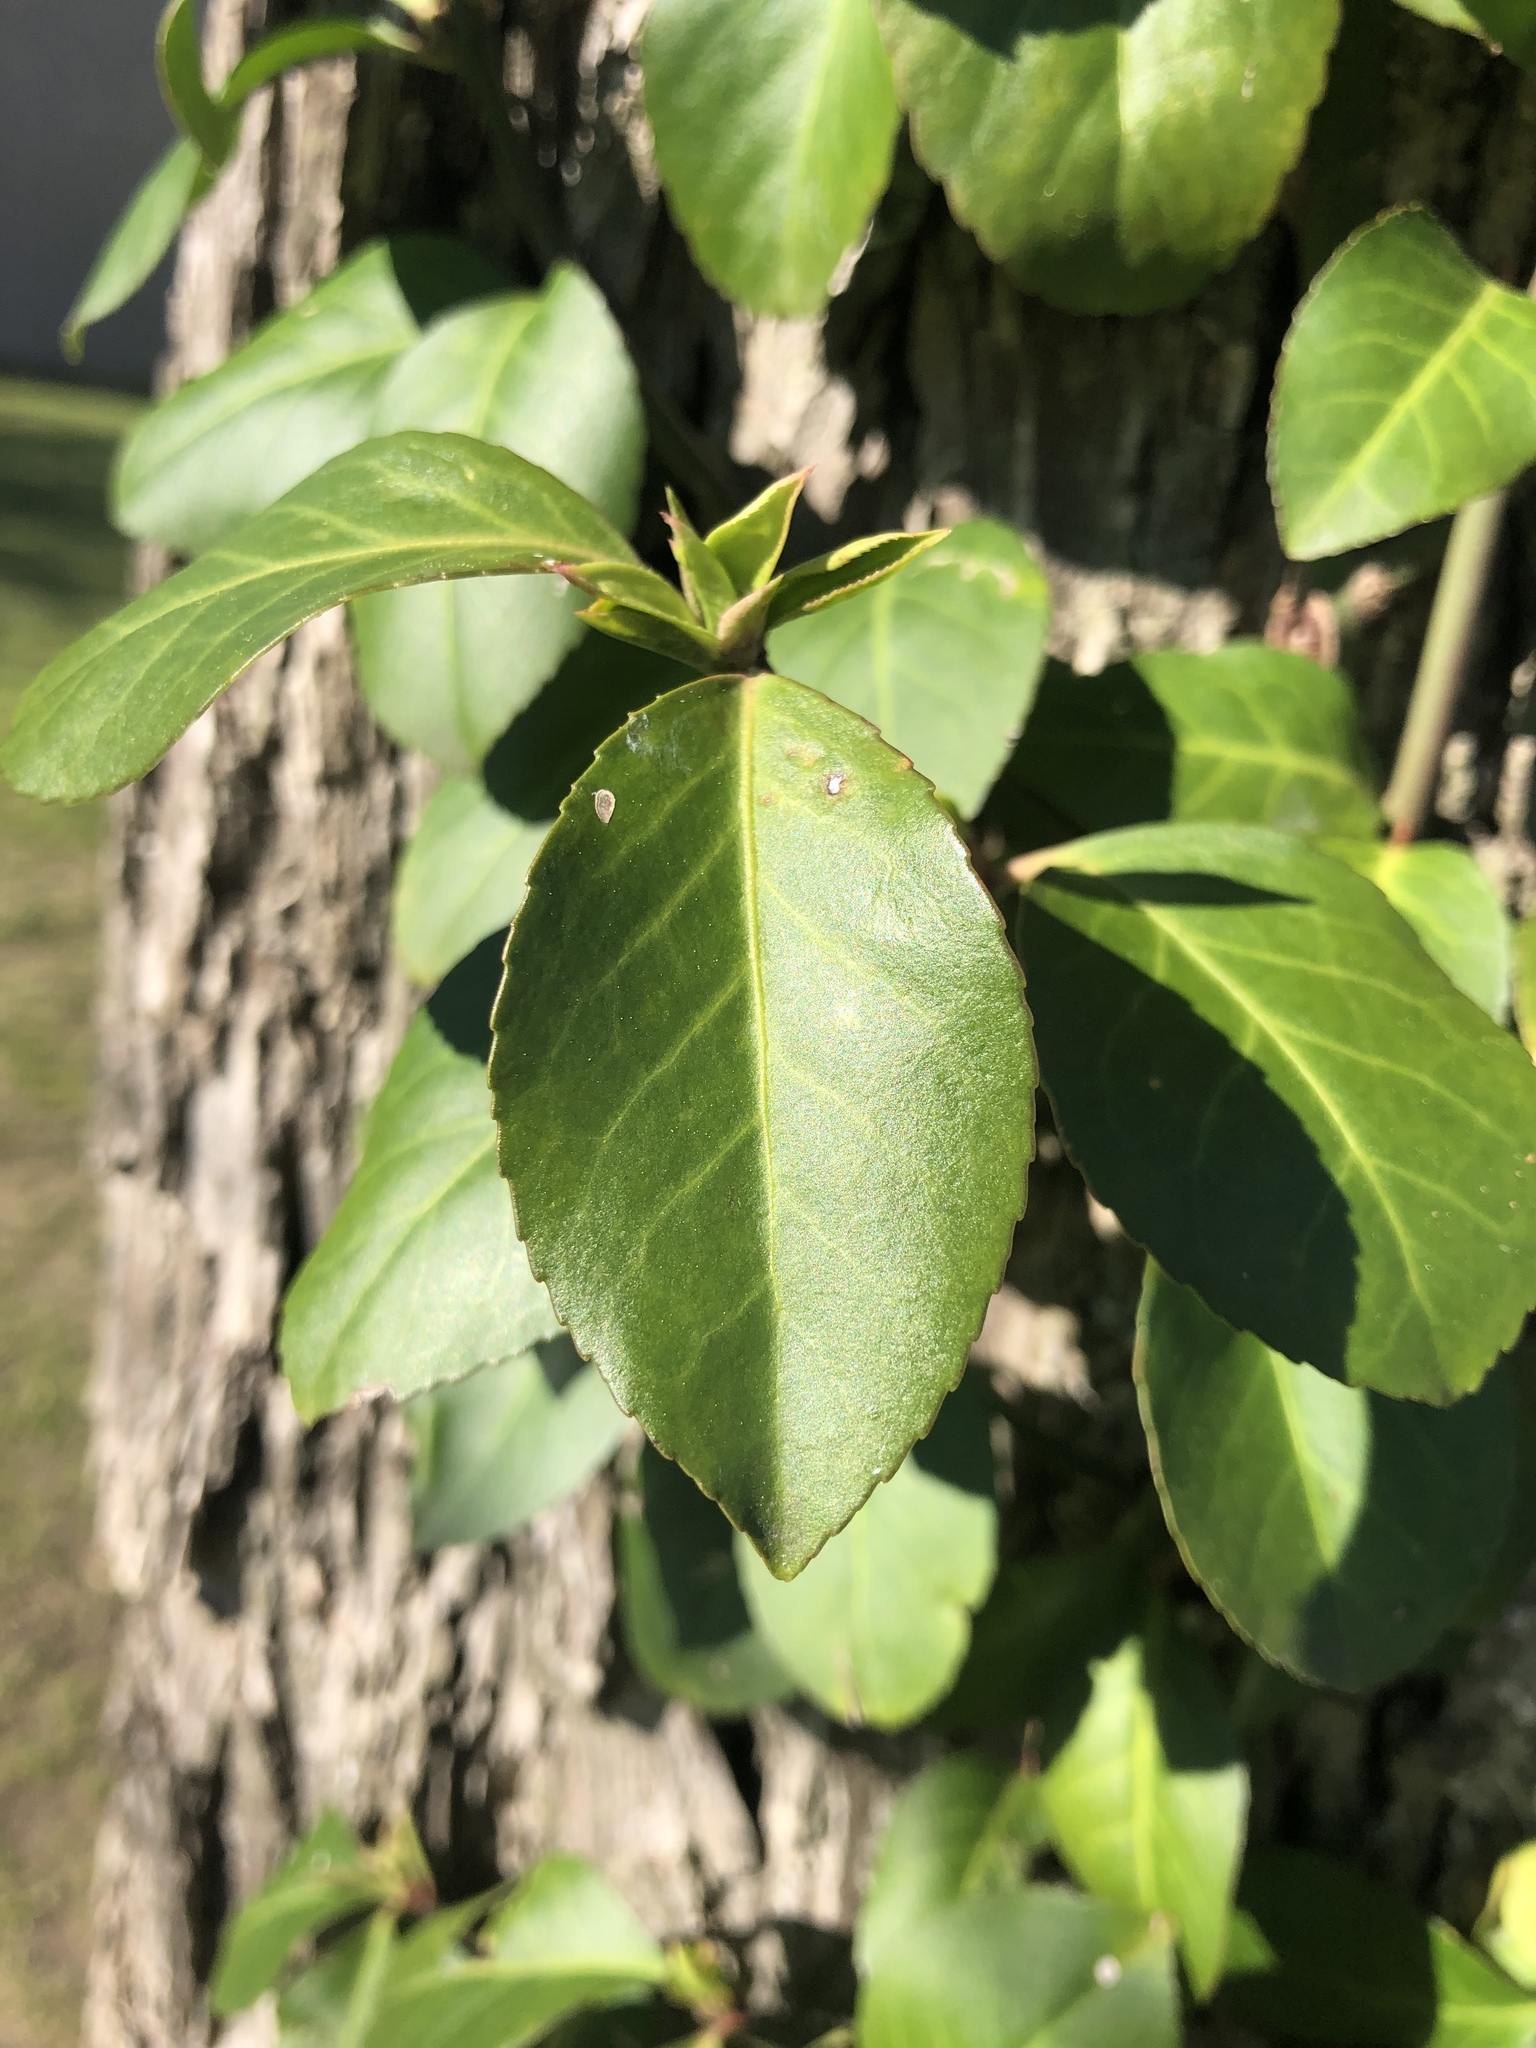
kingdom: Plantae
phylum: Tracheophyta
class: Magnoliopsida
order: Celastrales
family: Celastraceae
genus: Euonymus
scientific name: Euonymus fortunei
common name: Climbing euonymus
